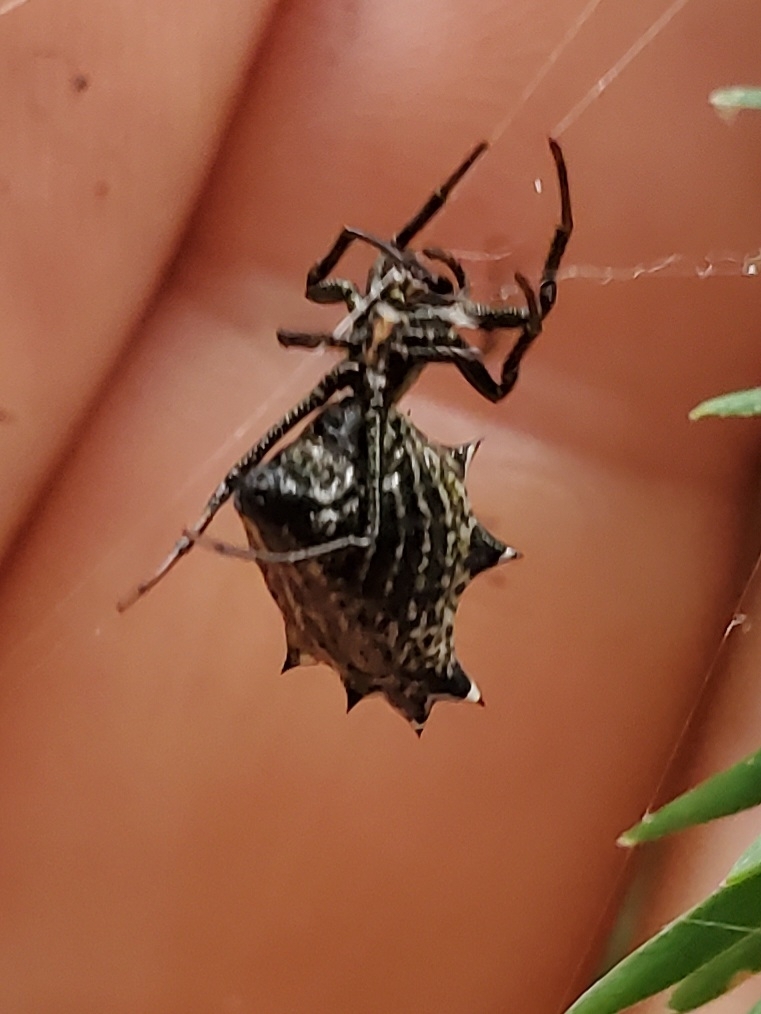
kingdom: Animalia
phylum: Arthropoda
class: Arachnida
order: Araneae
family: Araneidae
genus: Micrathena
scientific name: Micrathena gracilis
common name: Orb weavers
